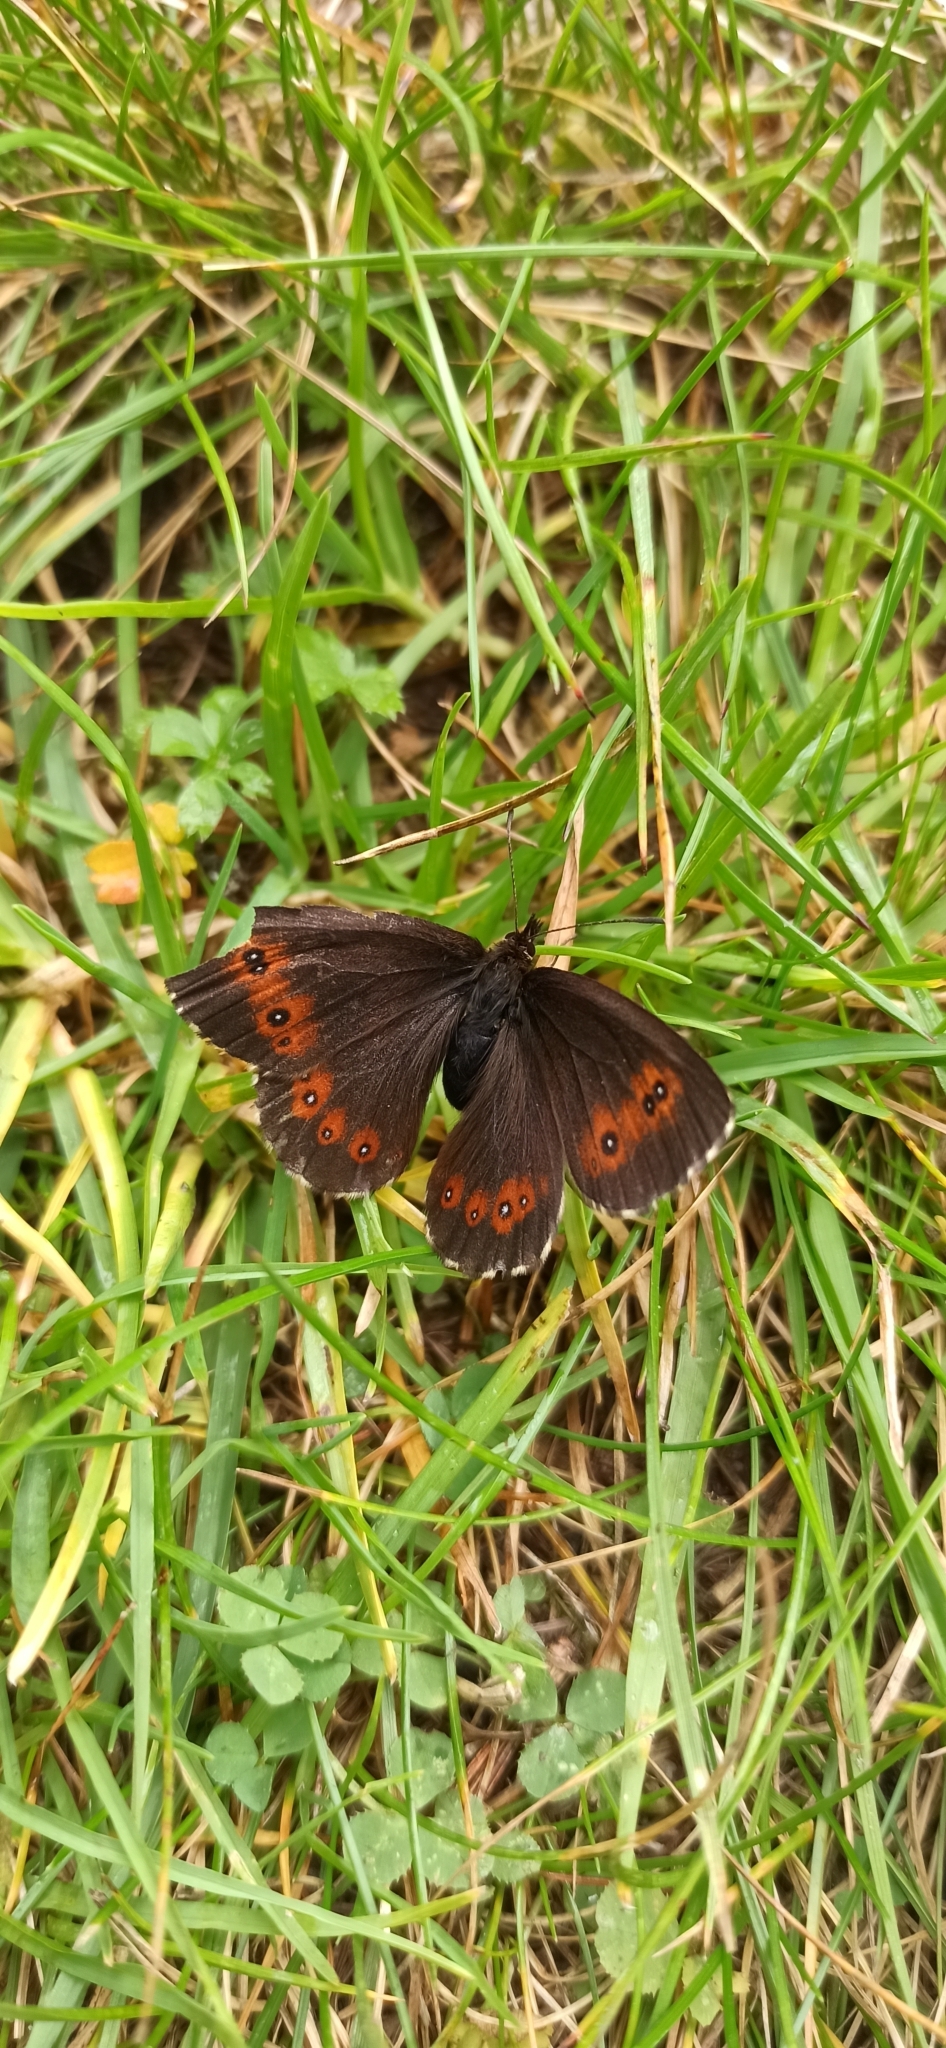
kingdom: Animalia
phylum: Arthropoda
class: Insecta
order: Lepidoptera
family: Nymphalidae
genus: Erebia
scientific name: Erebia euryale
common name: Large ringlet
